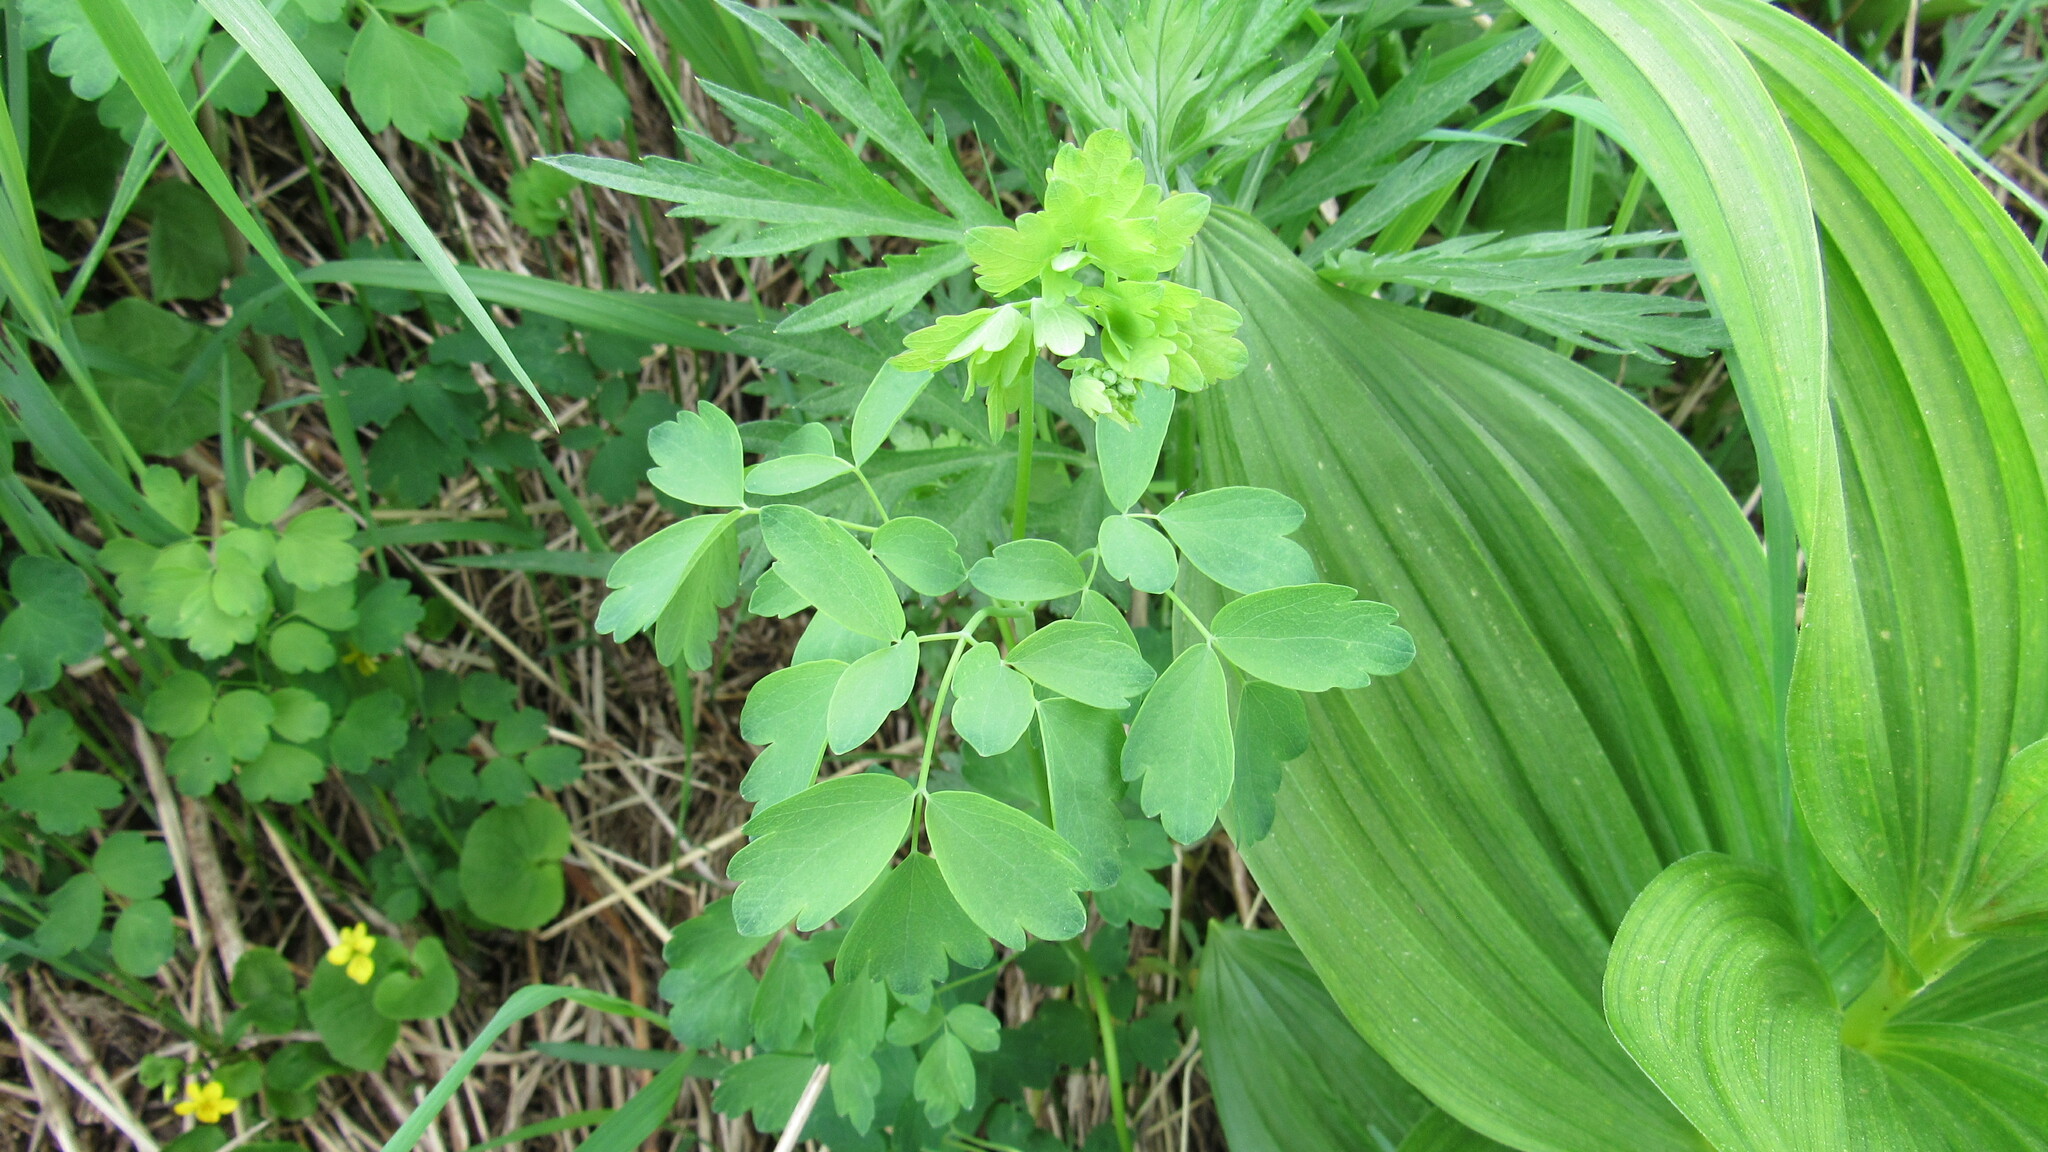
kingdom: Plantae
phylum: Tracheophyta
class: Magnoliopsida
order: Ranunculales
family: Ranunculaceae
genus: Thalictrum
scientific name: Thalictrum minus
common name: Lesser meadow-rue
